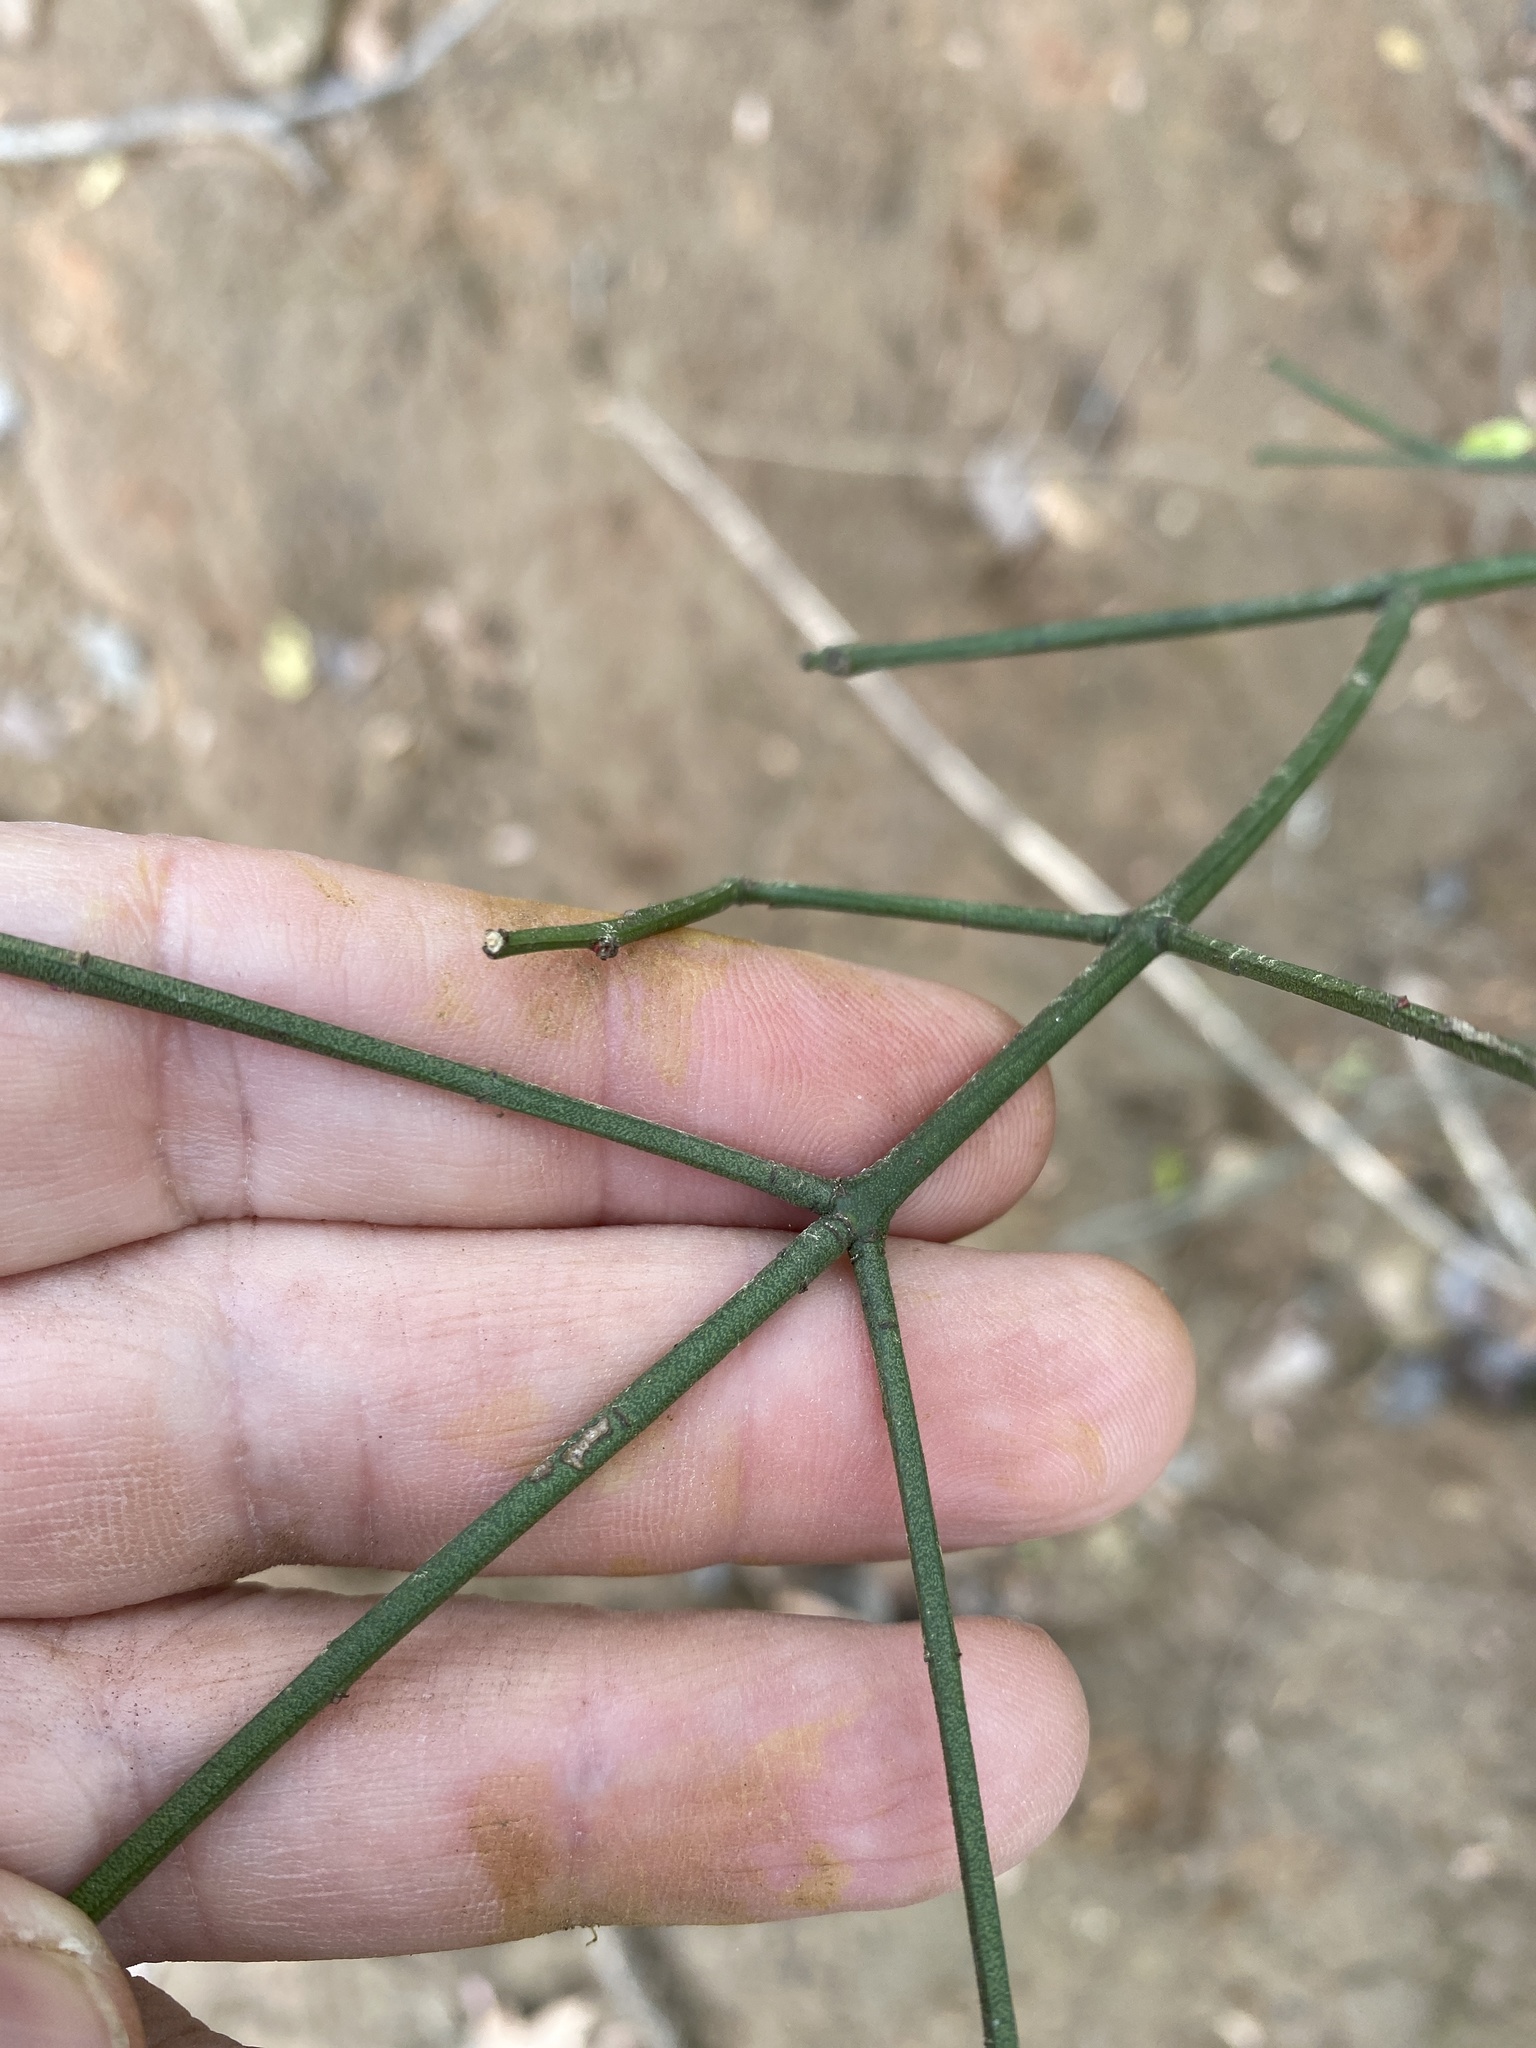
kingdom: Plantae
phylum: Tracheophyta
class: Magnoliopsida
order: Celastrales
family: Celastraceae
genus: Euonymus
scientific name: Euonymus americanus
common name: Bursting-heart
